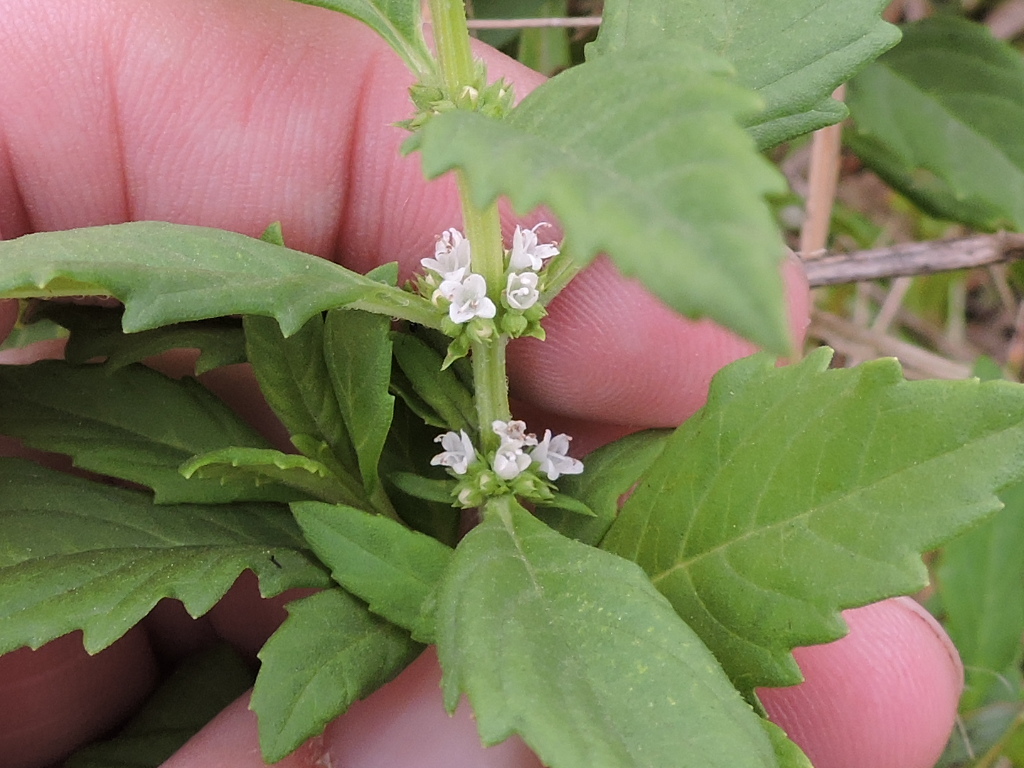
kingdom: Plantae
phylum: Tracheophyta
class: Magnoliopsida
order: Lamiales
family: Lamiaceae
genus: Lycopus
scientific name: Lycopus americanus
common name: American bugleweed
